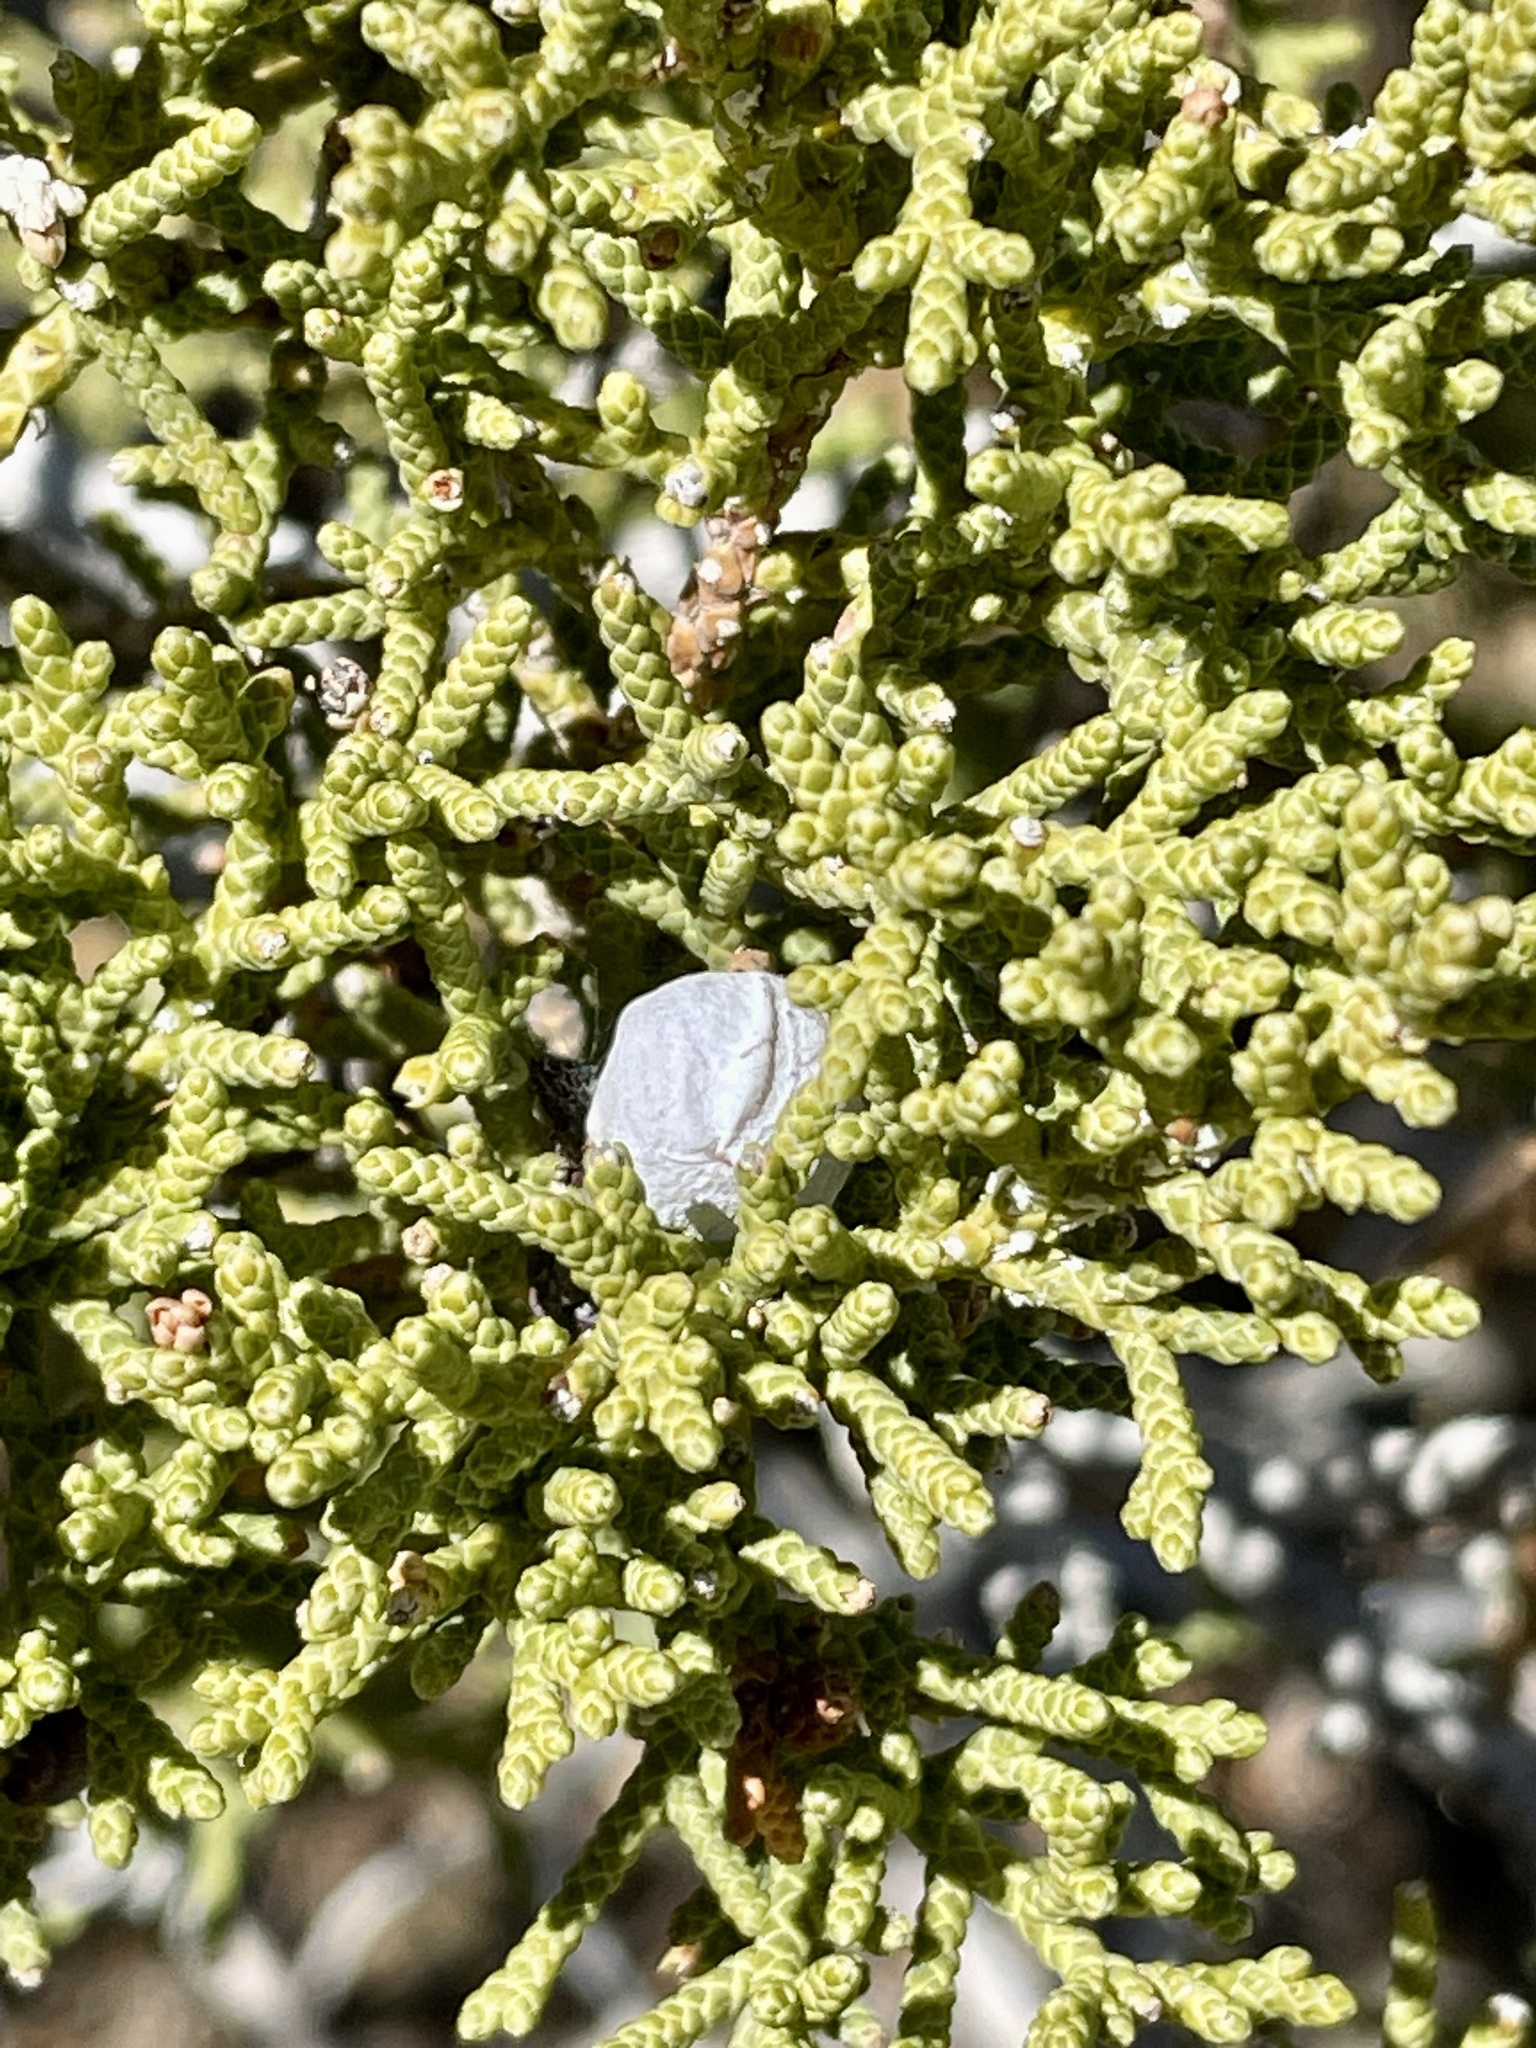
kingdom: Plantae
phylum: Tracheophyta
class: Pinopsida
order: Pinales
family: Cupressaceae
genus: Juniperus
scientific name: Juniperus californica
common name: California juniper
